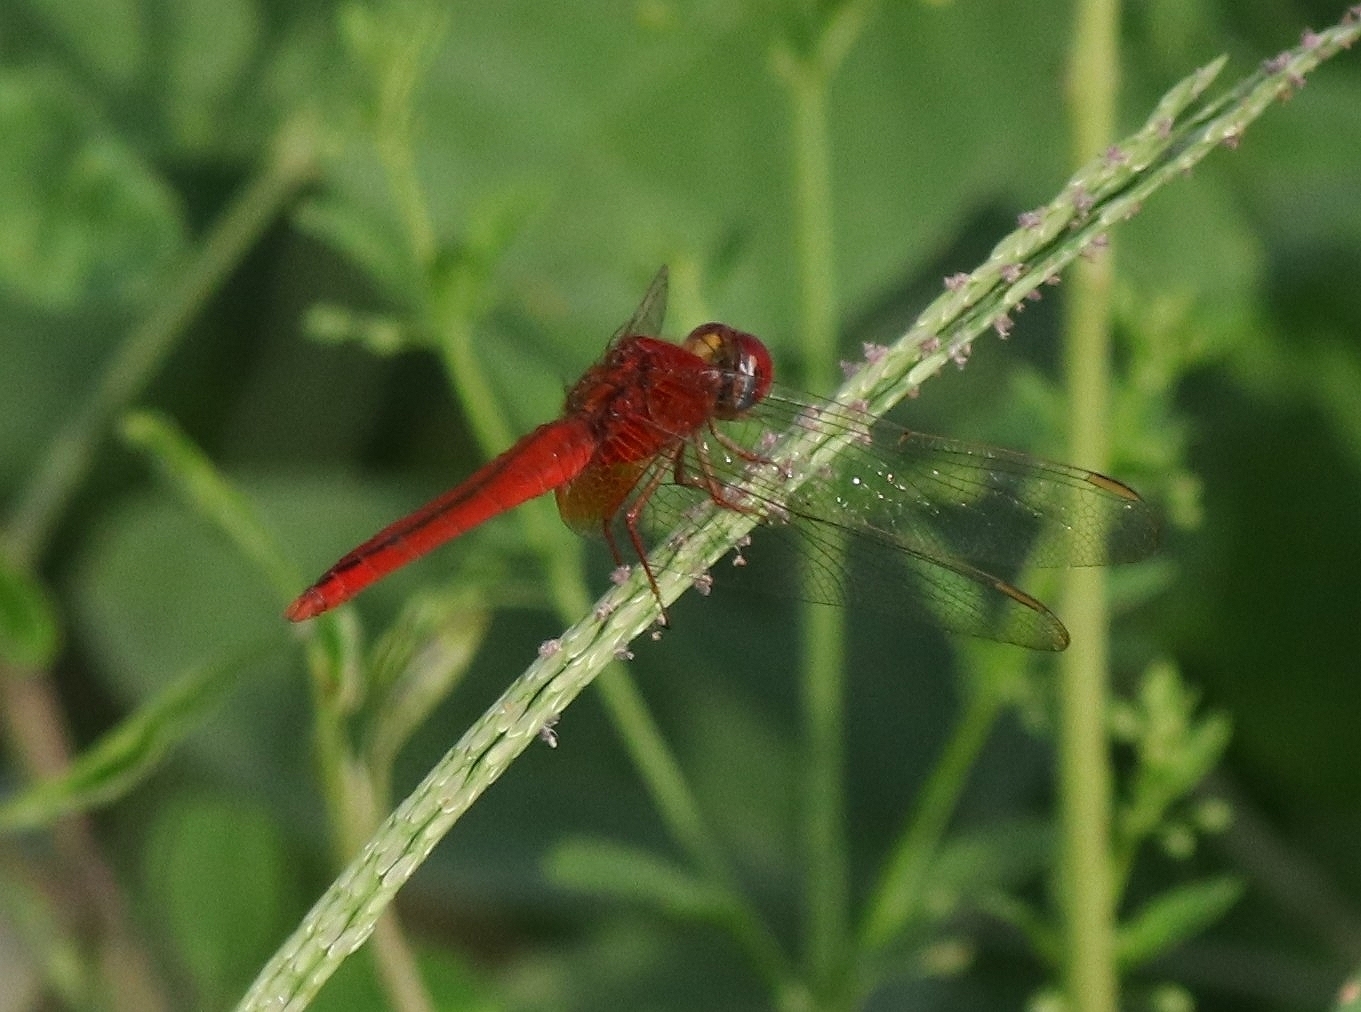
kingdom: Animalia
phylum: Arthropoda
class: Insecta
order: Odonata
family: Libellulidae
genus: Crocothemis
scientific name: Crocothemis servilia
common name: Scarlet skimmer
